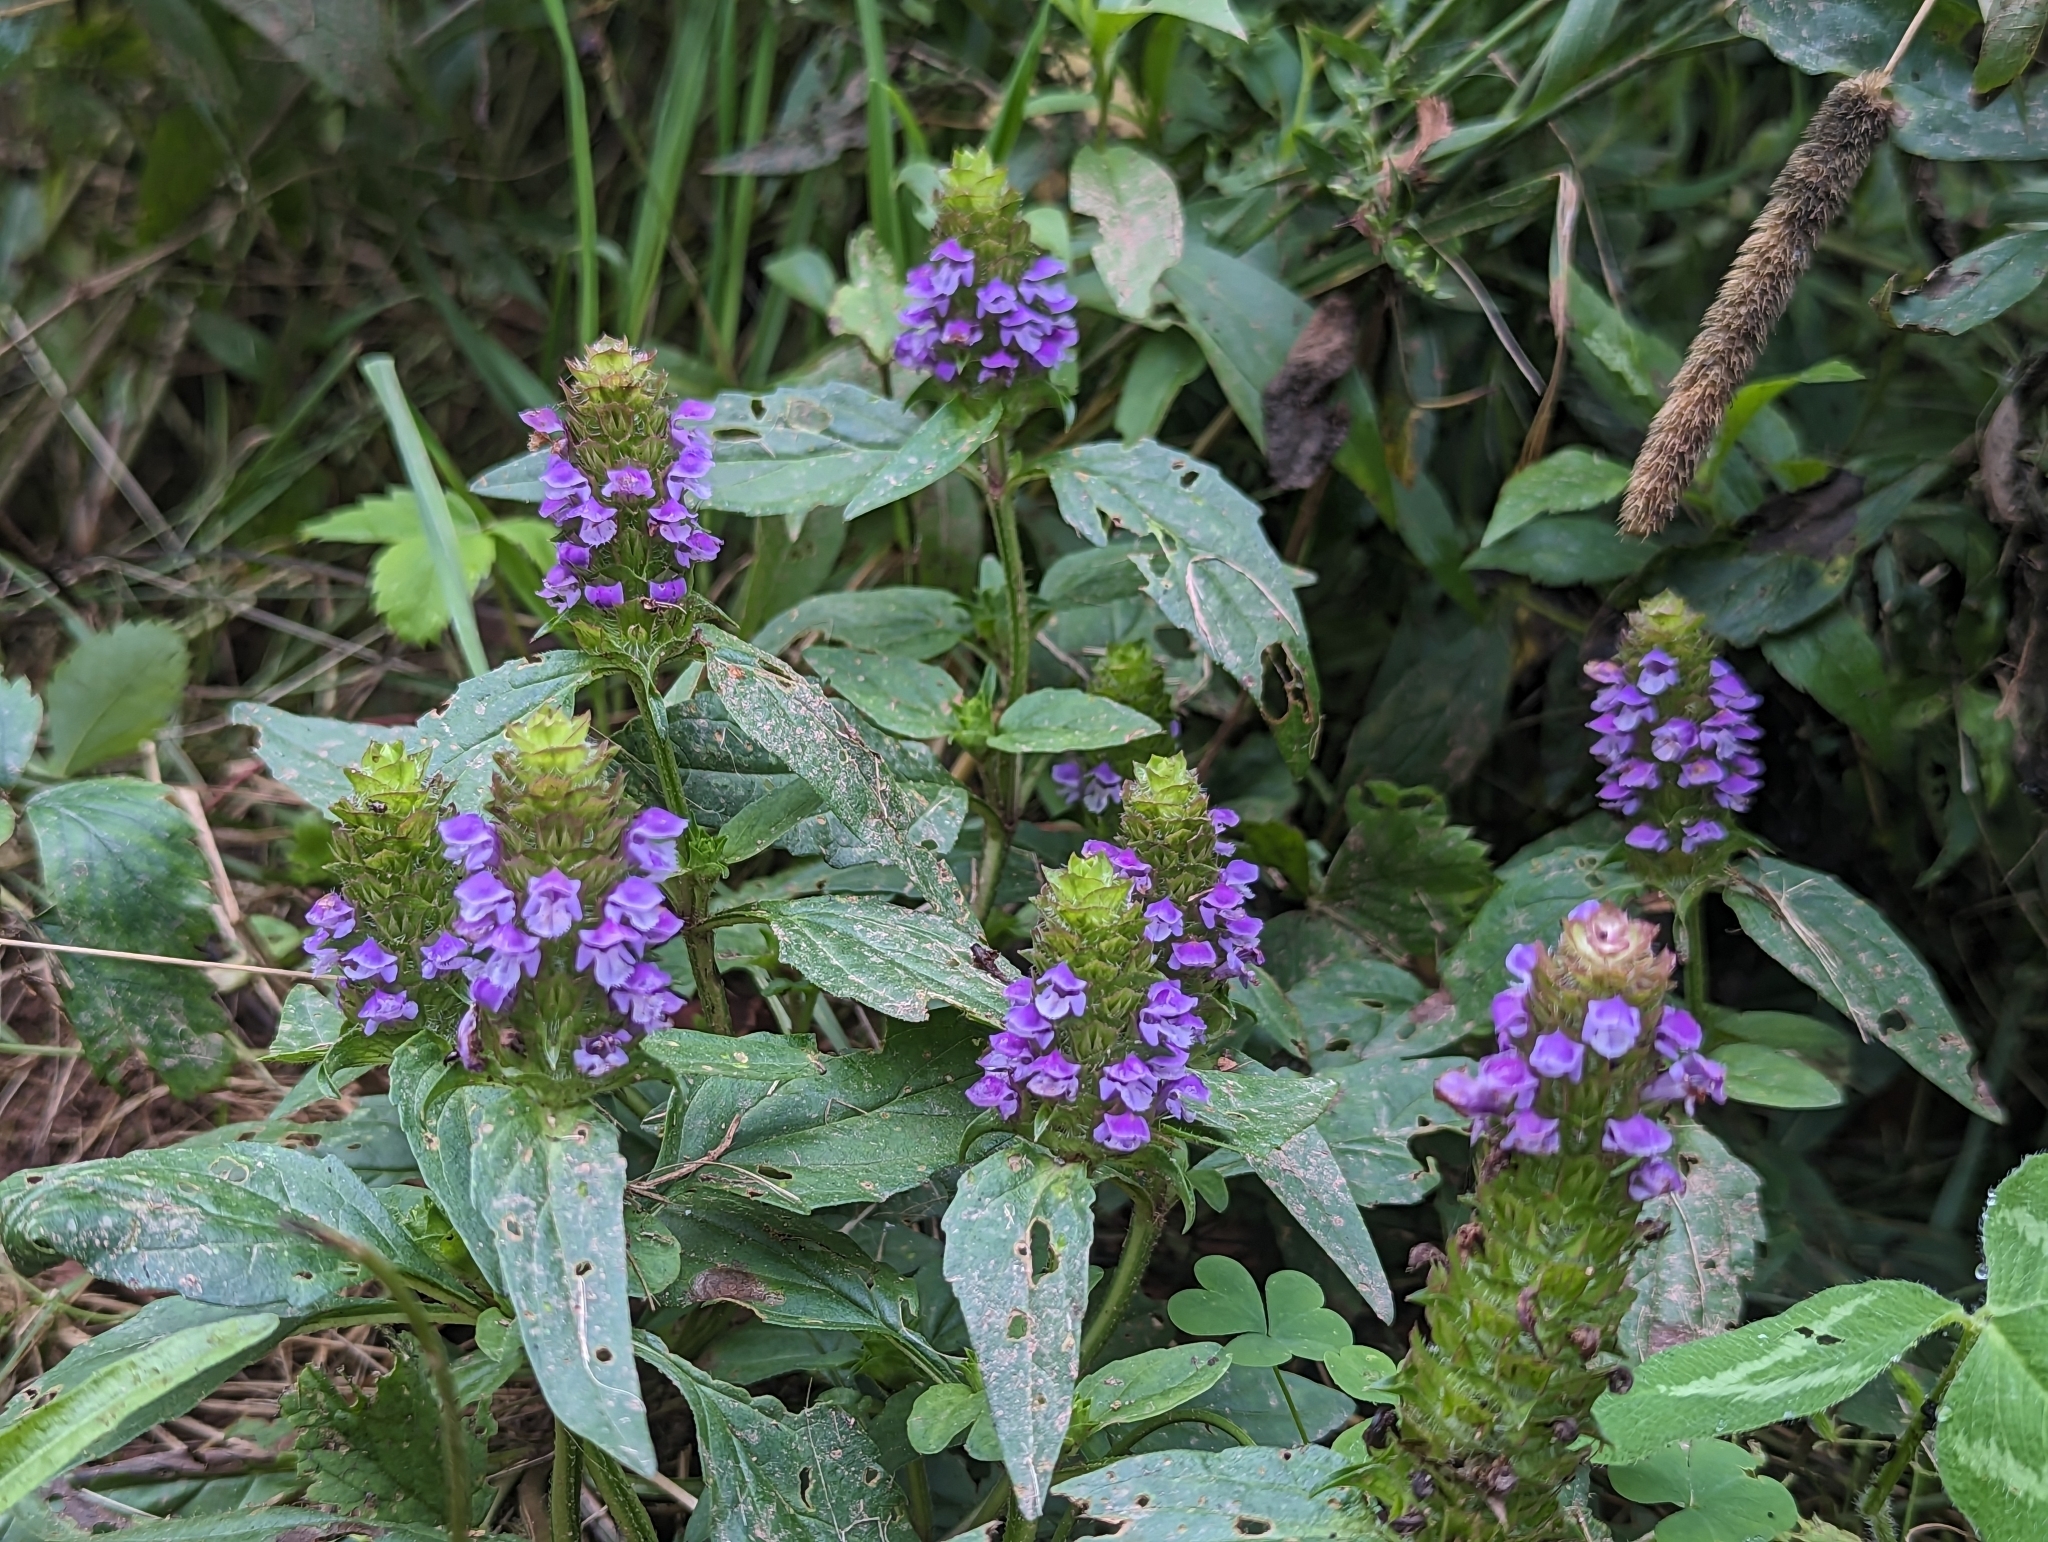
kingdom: Plantae
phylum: Tracheophyta
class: Magnoliopsida
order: Lamiales
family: Lamiaceae
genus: Prunella
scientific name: Prunella vulgaris
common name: Heal-all
